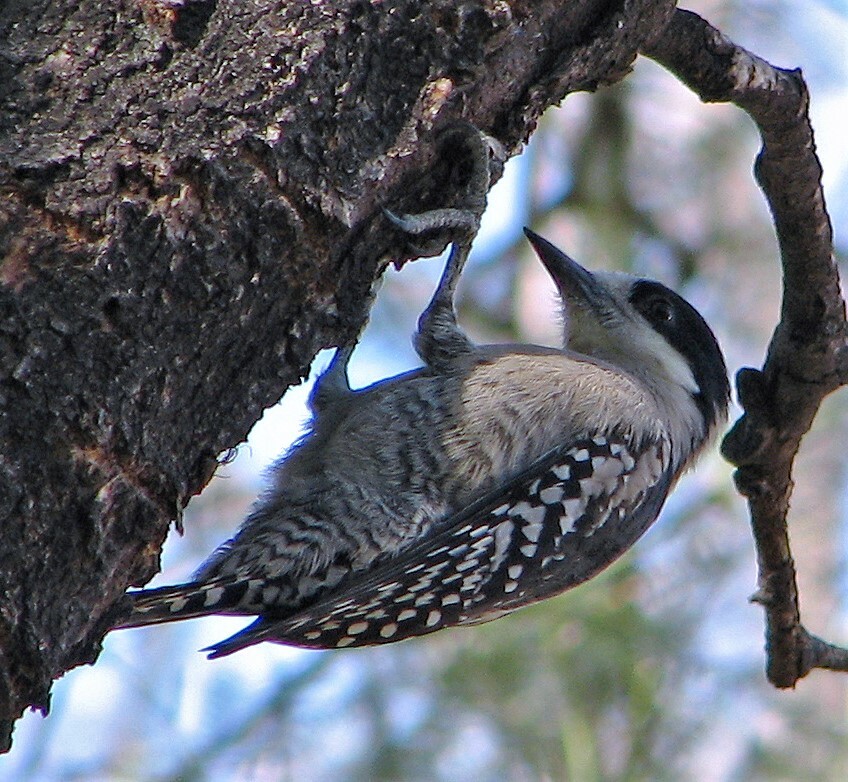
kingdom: Animalia
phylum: Chordata
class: Aves
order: Piciformes
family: Picidae
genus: Melanerpes
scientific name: Melanerpes cactorum
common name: White-fronted woodpecker
